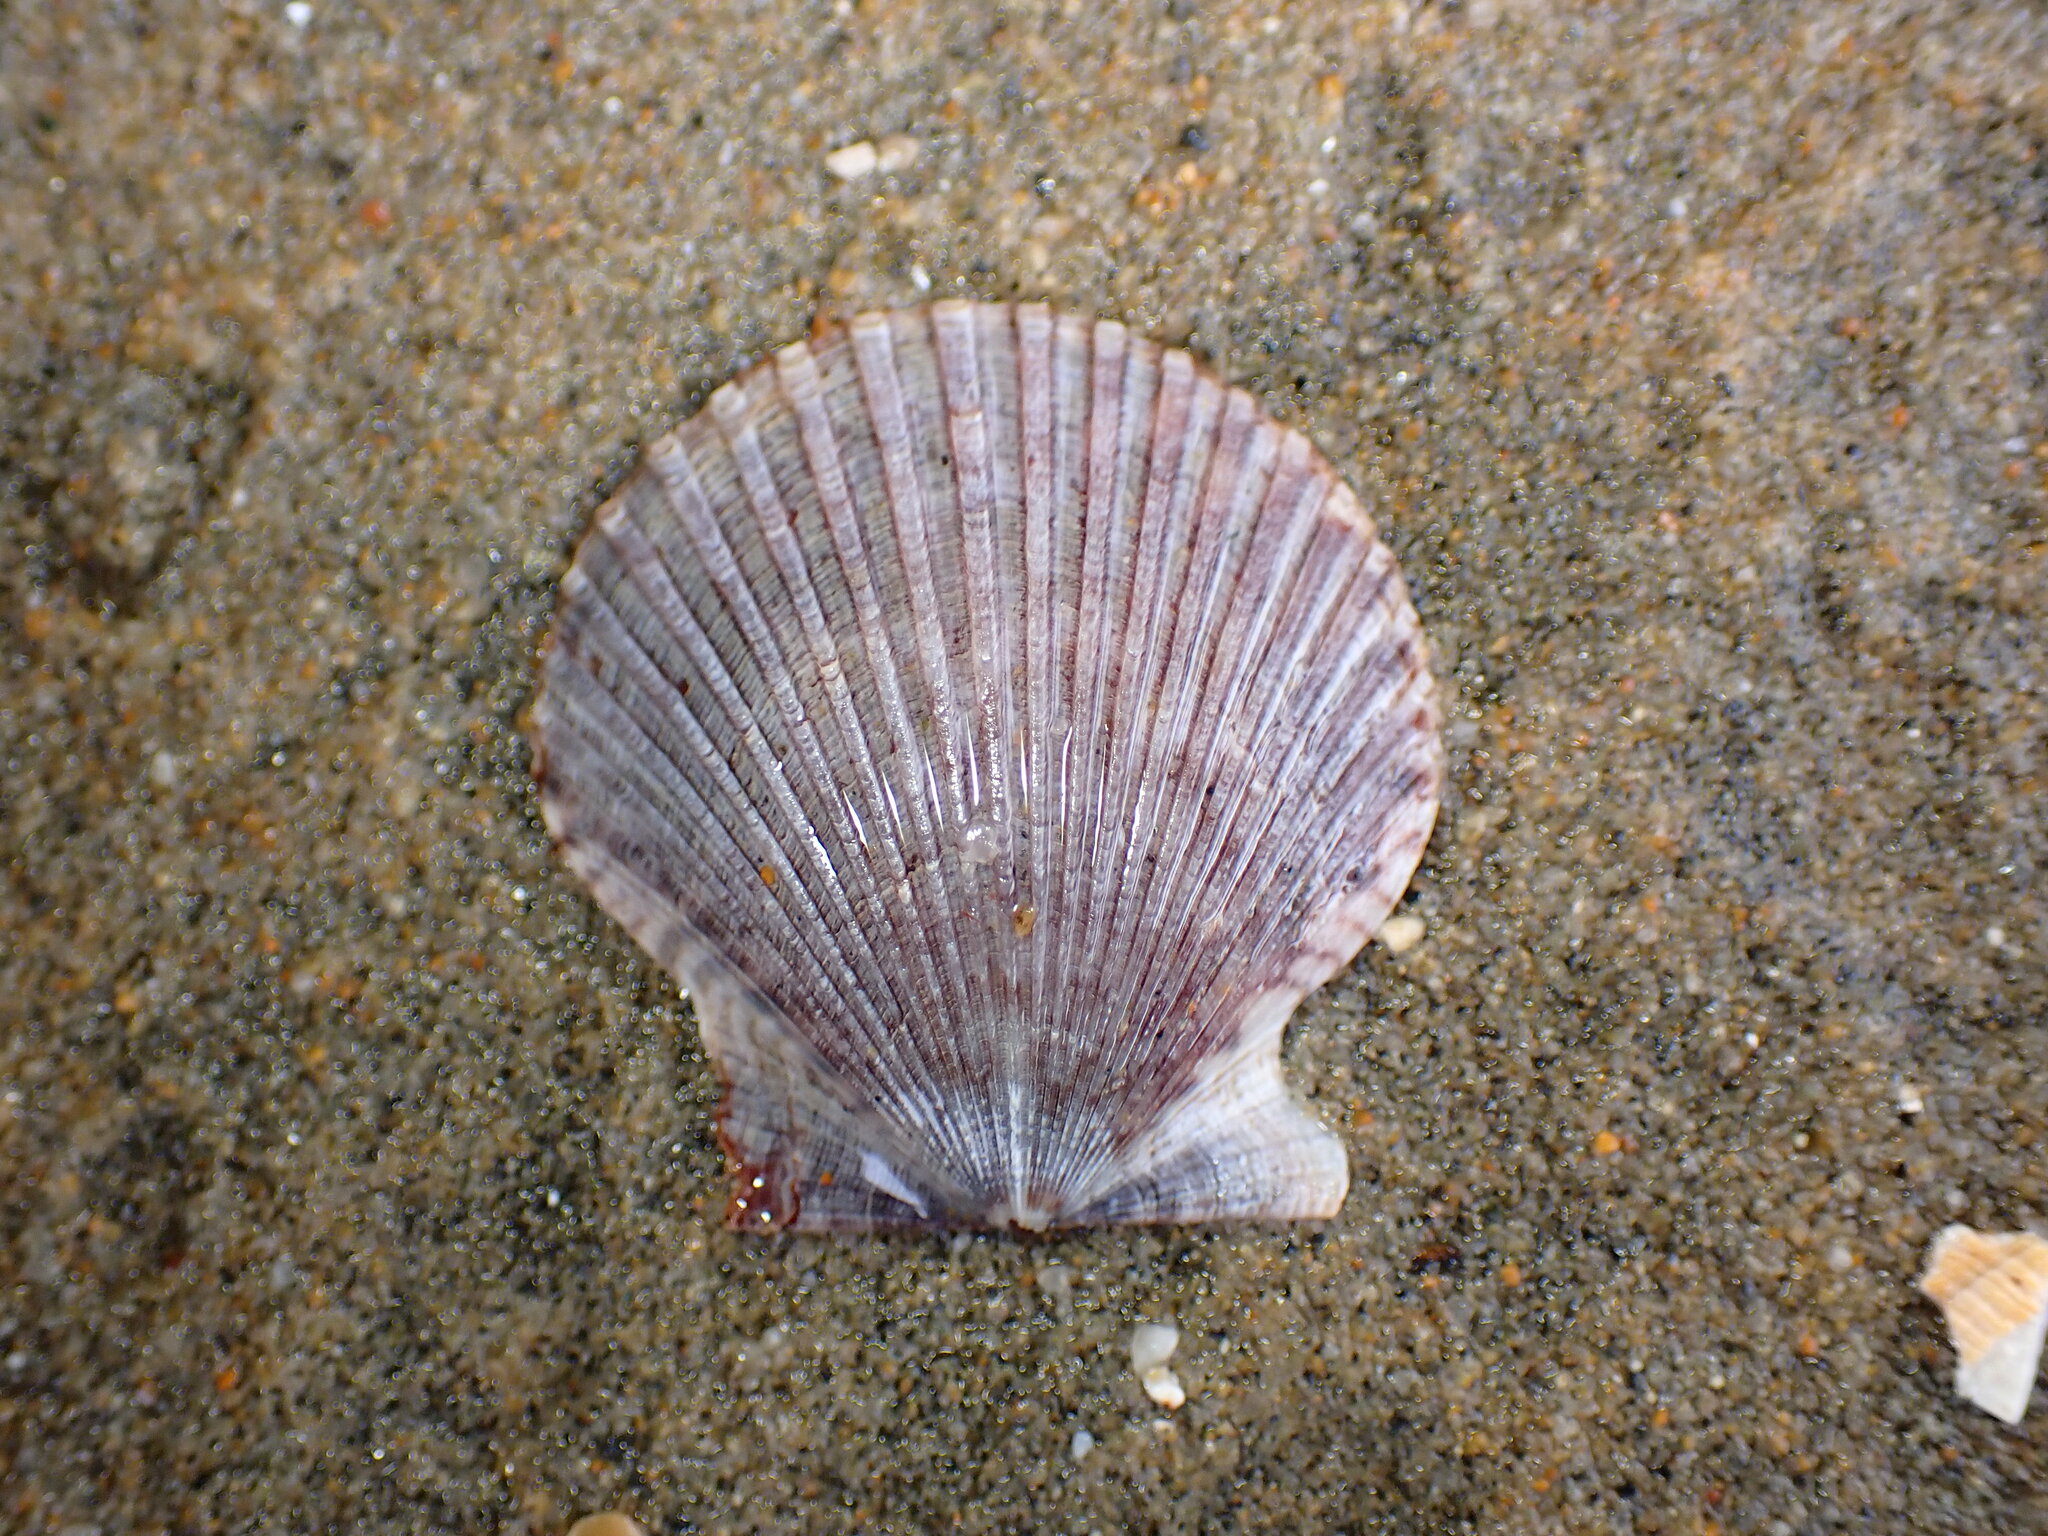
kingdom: Animalia
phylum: Mollusca
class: Bivalvia
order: Pectinida
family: Pectinidae
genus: Argopecten
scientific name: Argopecten ventricosus
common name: Catarina scallop
